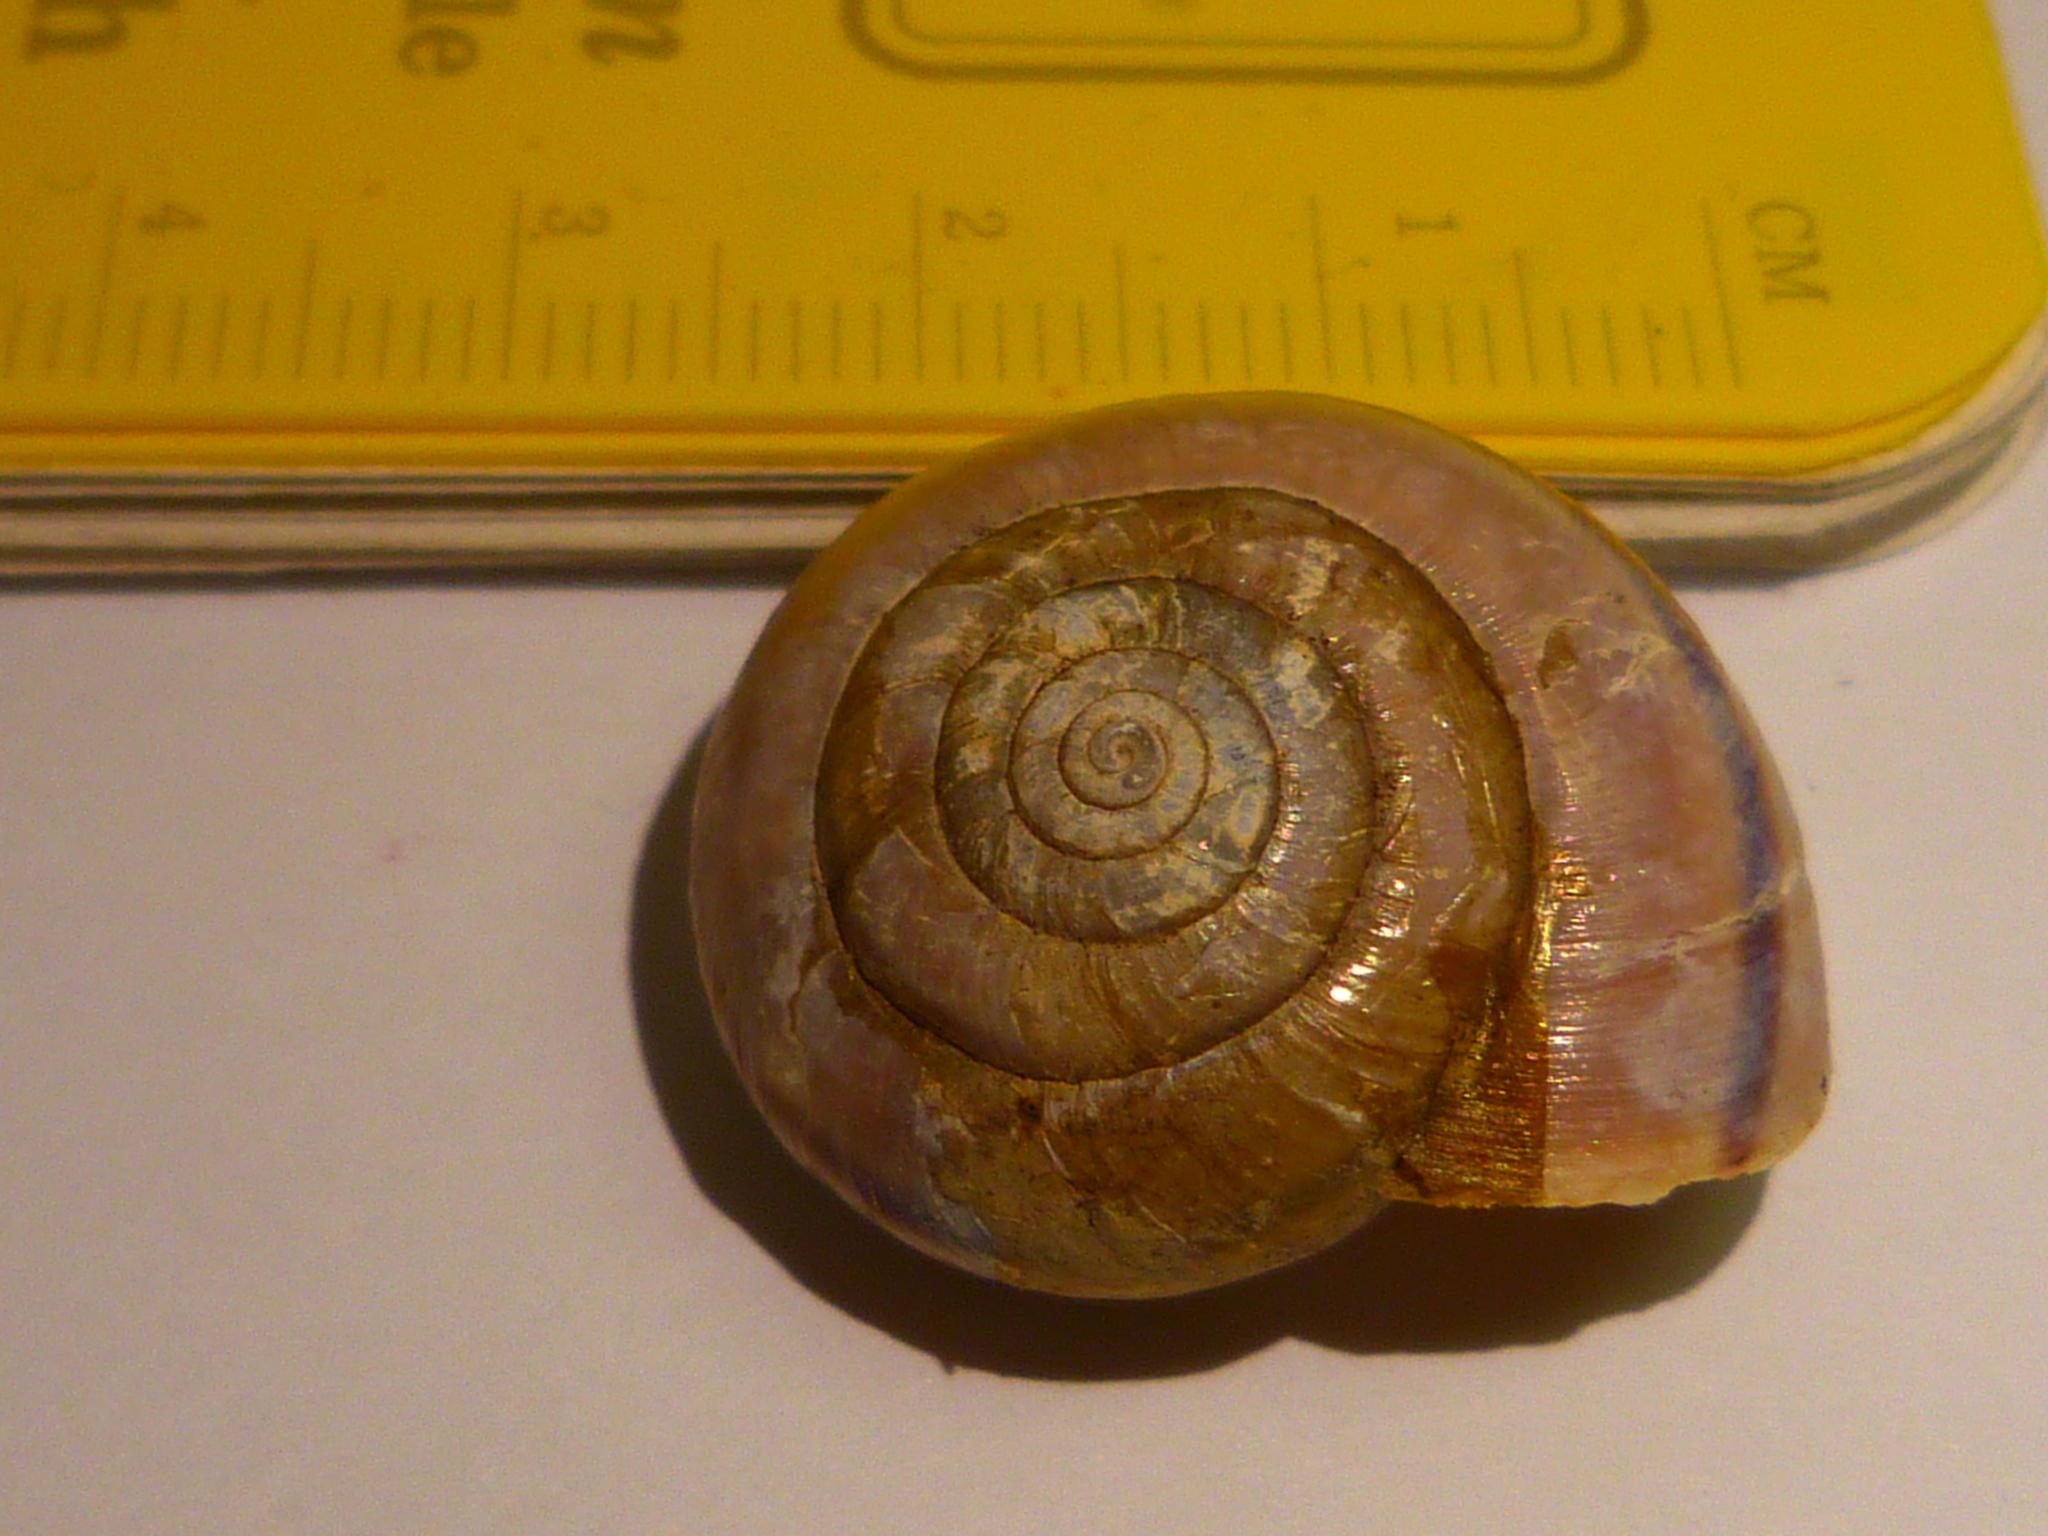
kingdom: Animalia
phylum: Mollusca
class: Gastropoda
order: Stylommatophora
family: Xanthonychidae
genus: Helminthoglypta
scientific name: Helminthoglypta willetti
